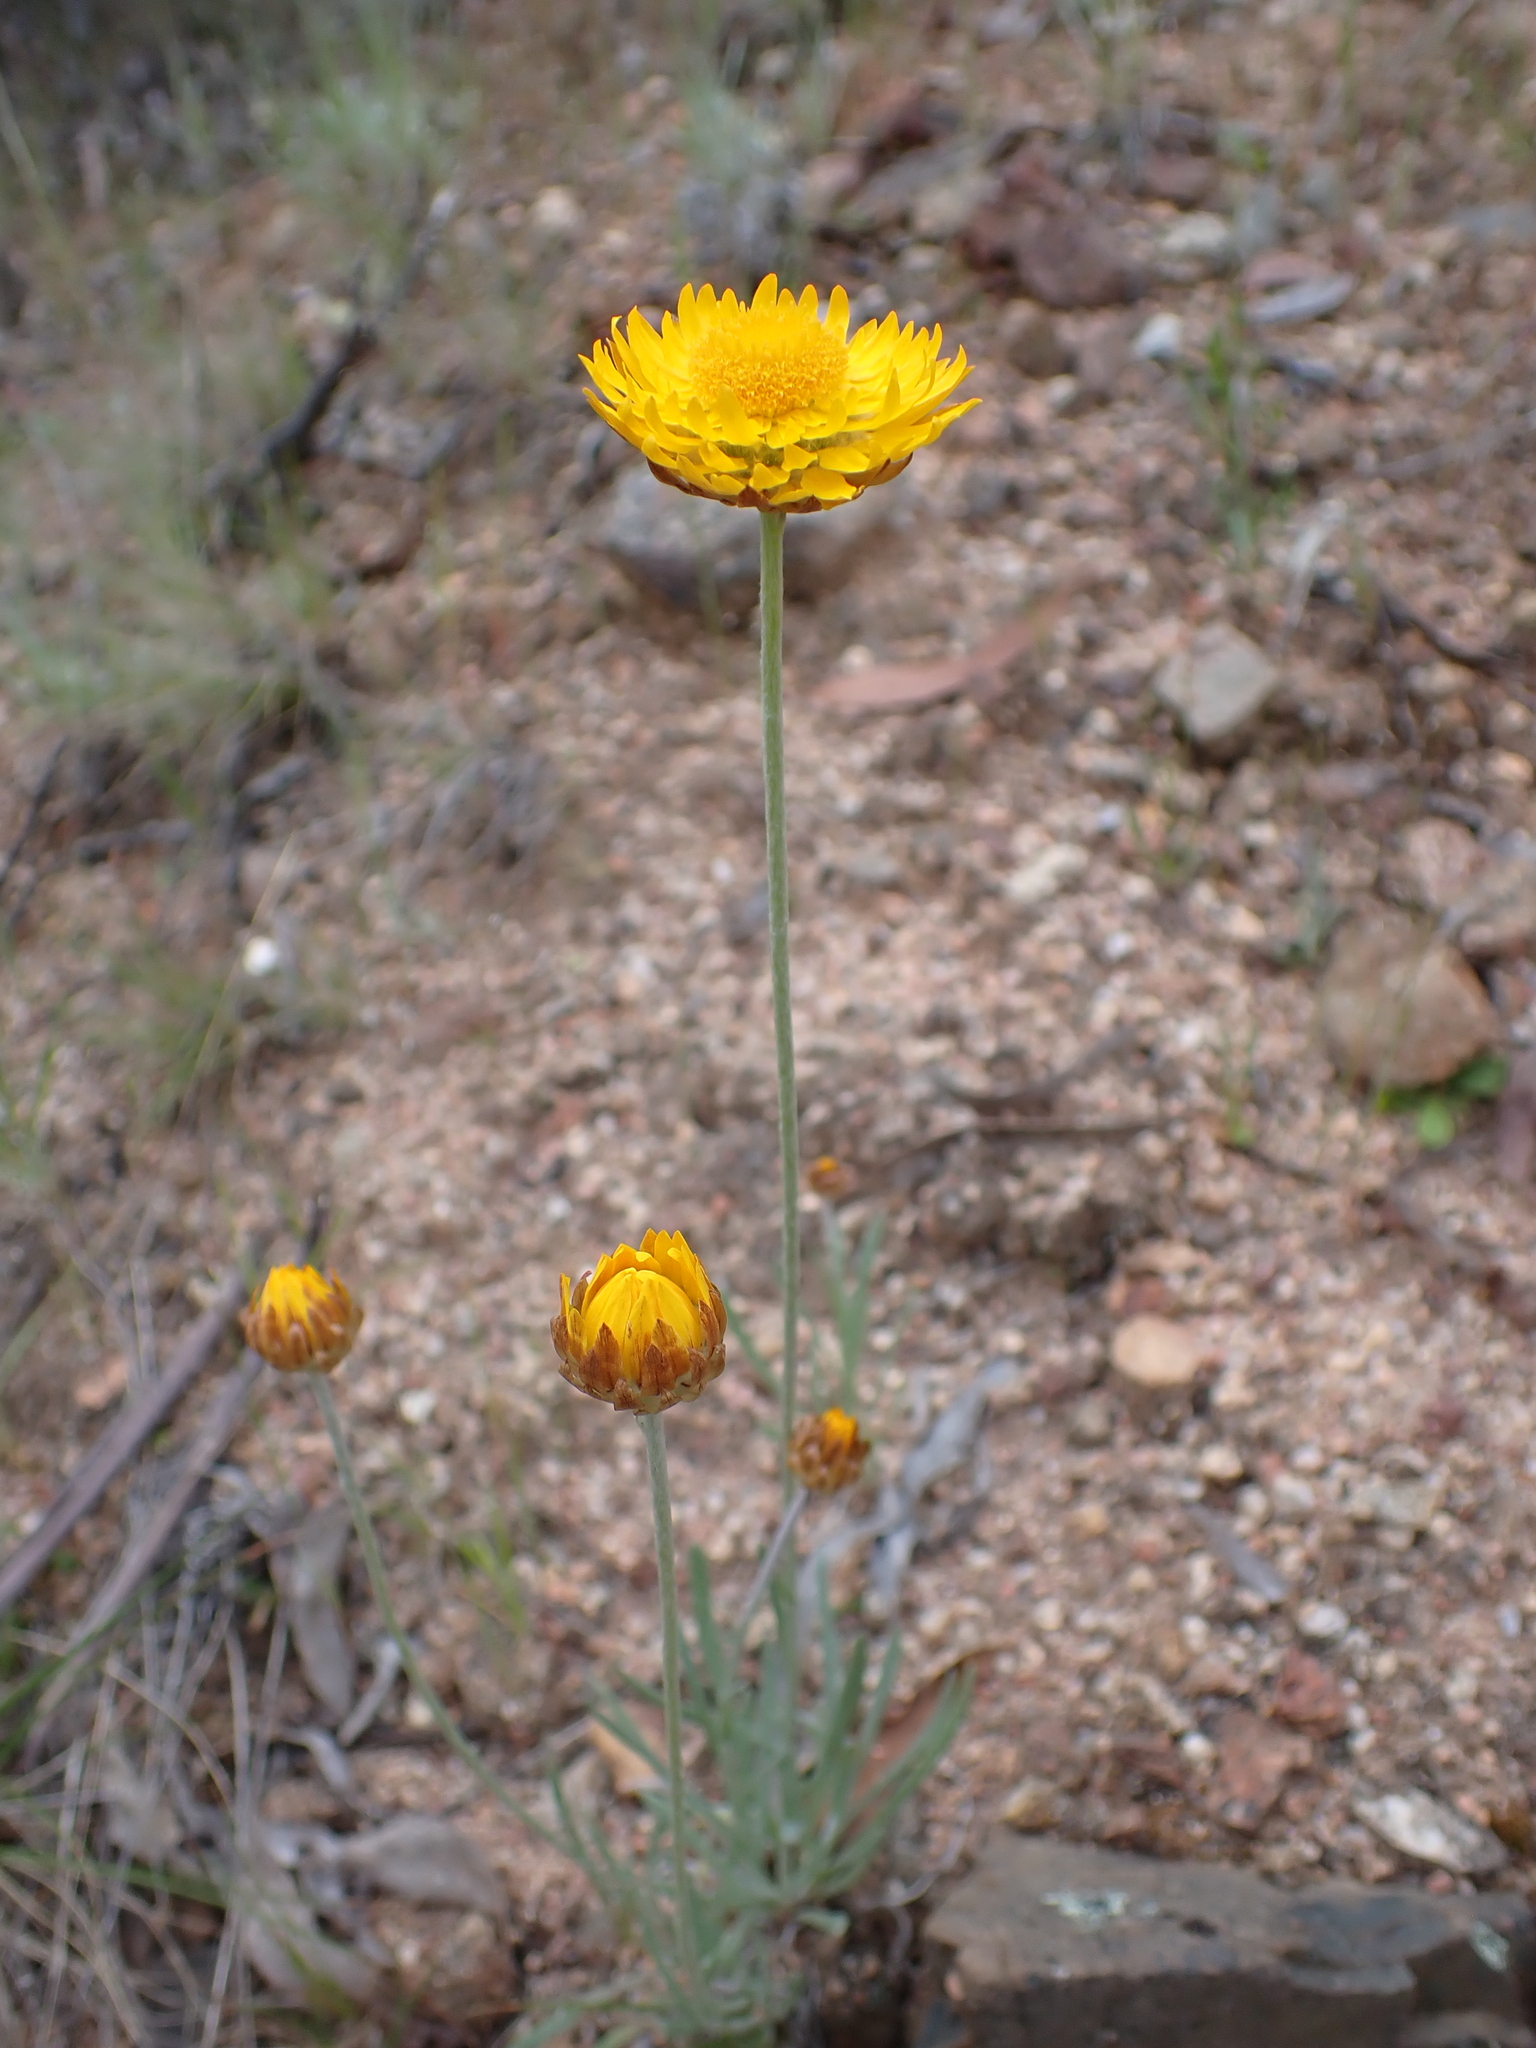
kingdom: Plantae
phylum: Tracheophyta
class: Magnoliopsida
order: Asterales
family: Asteraceae
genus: Leucochrysum
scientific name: Leucochrysum albicans
